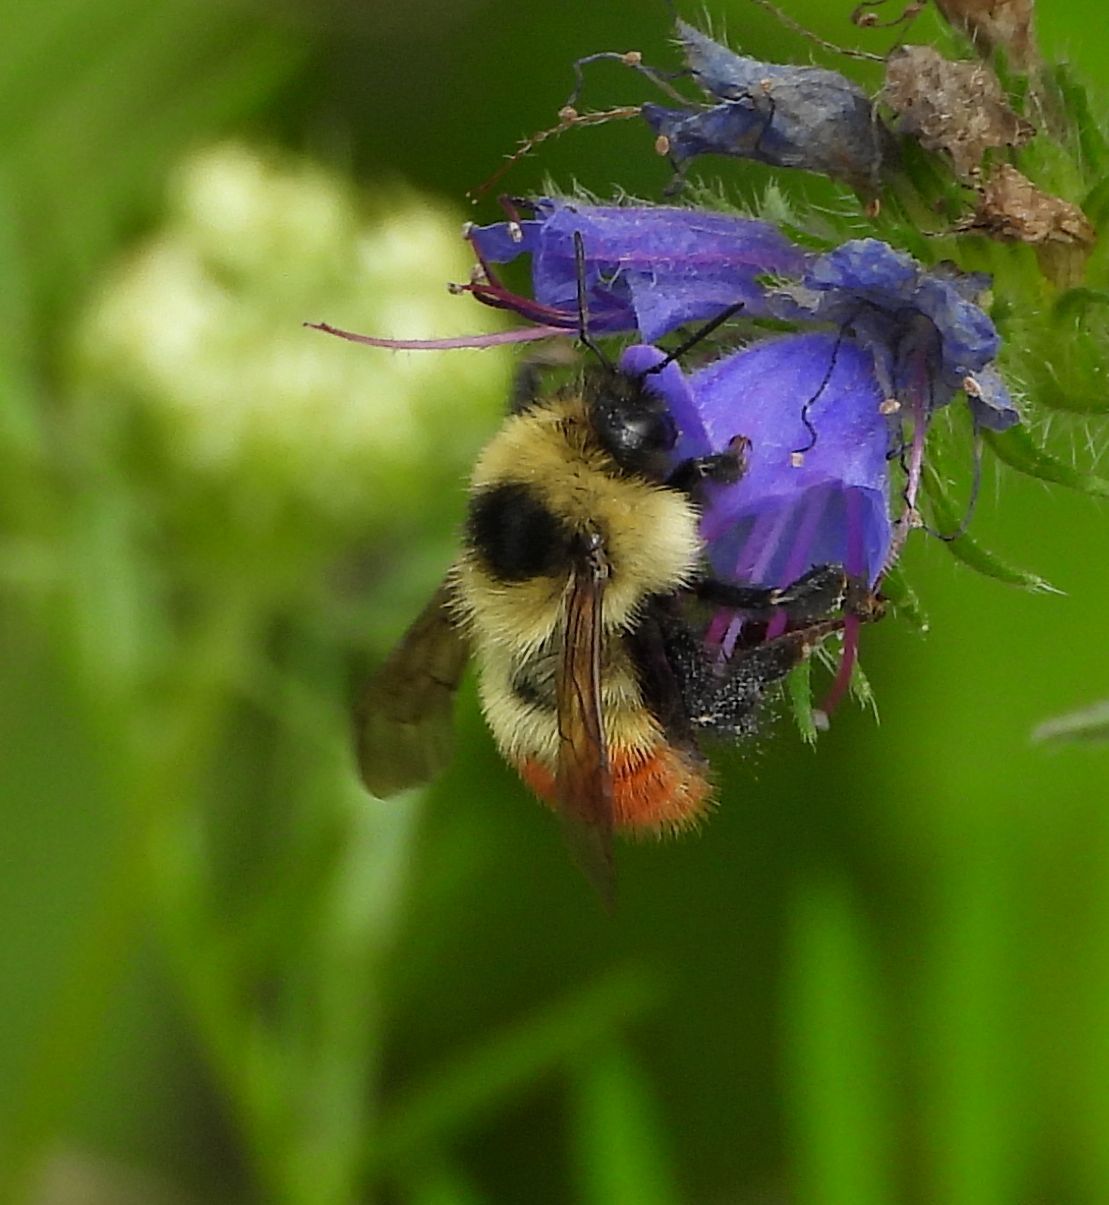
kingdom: Animalia
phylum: Arthropoda
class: Insecta
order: Hymenoptera
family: Apidae
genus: Bombus
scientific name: Bombus rufocinctus
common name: Red-belted bumble bee
